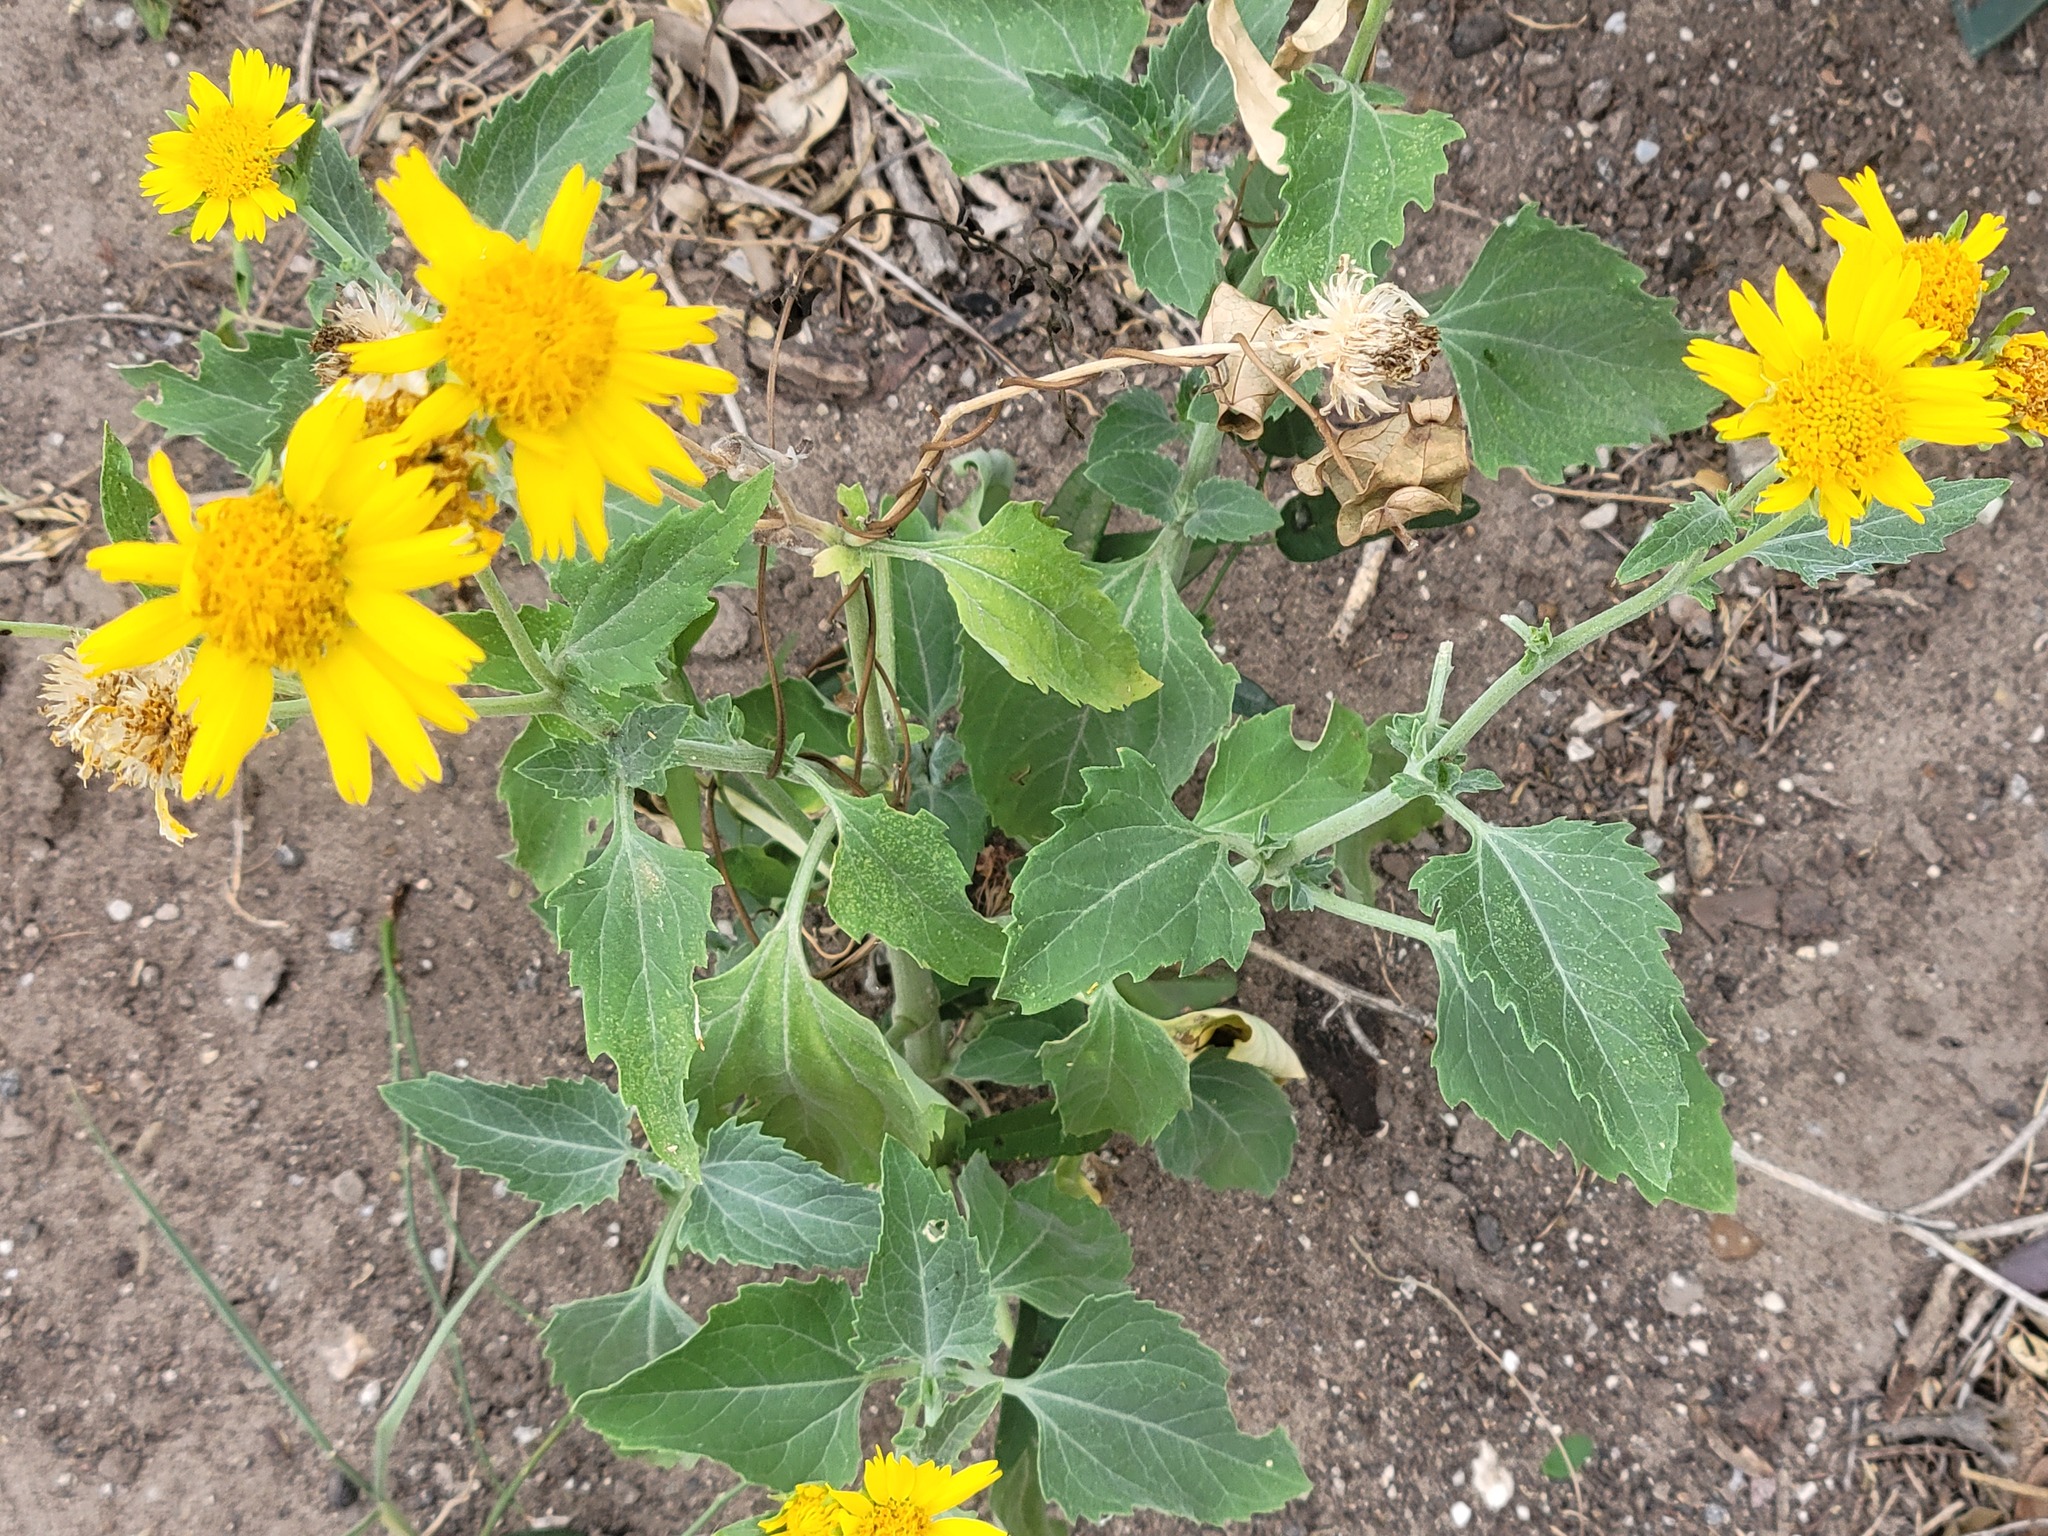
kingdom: Plantae
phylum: Tracheophyta
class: Magnoliopsida
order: Asterales
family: Asteraceae
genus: Verbesina
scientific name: Verbesina encelioides
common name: Golden crownbeard
